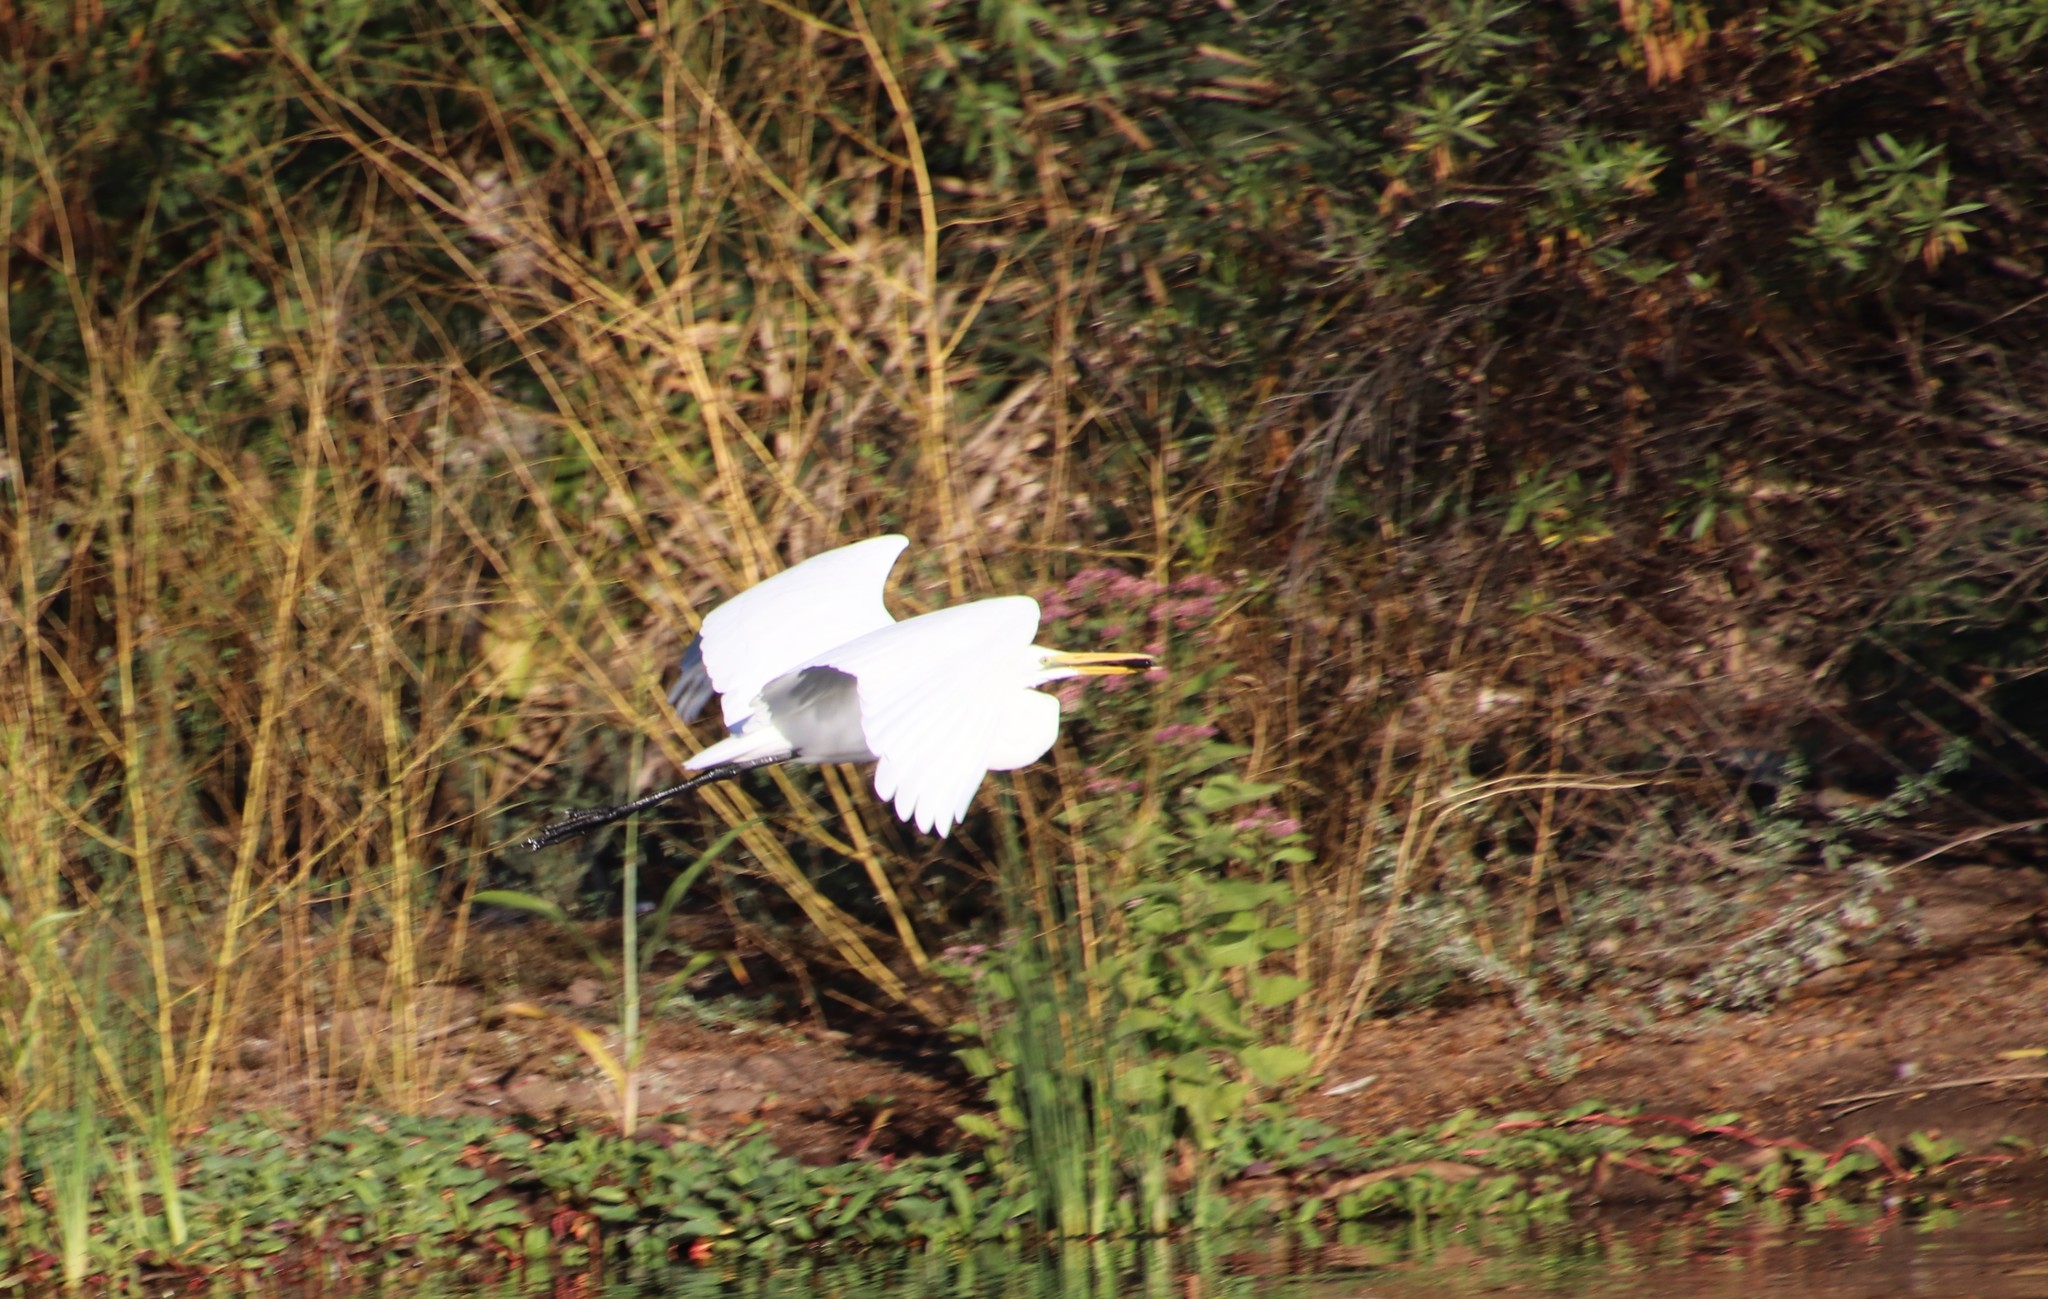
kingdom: Animalia
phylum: Chordata
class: Aves
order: Pelecaniformes
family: Ardeidae
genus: Ardea
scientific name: Ardea alba
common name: Great egret
